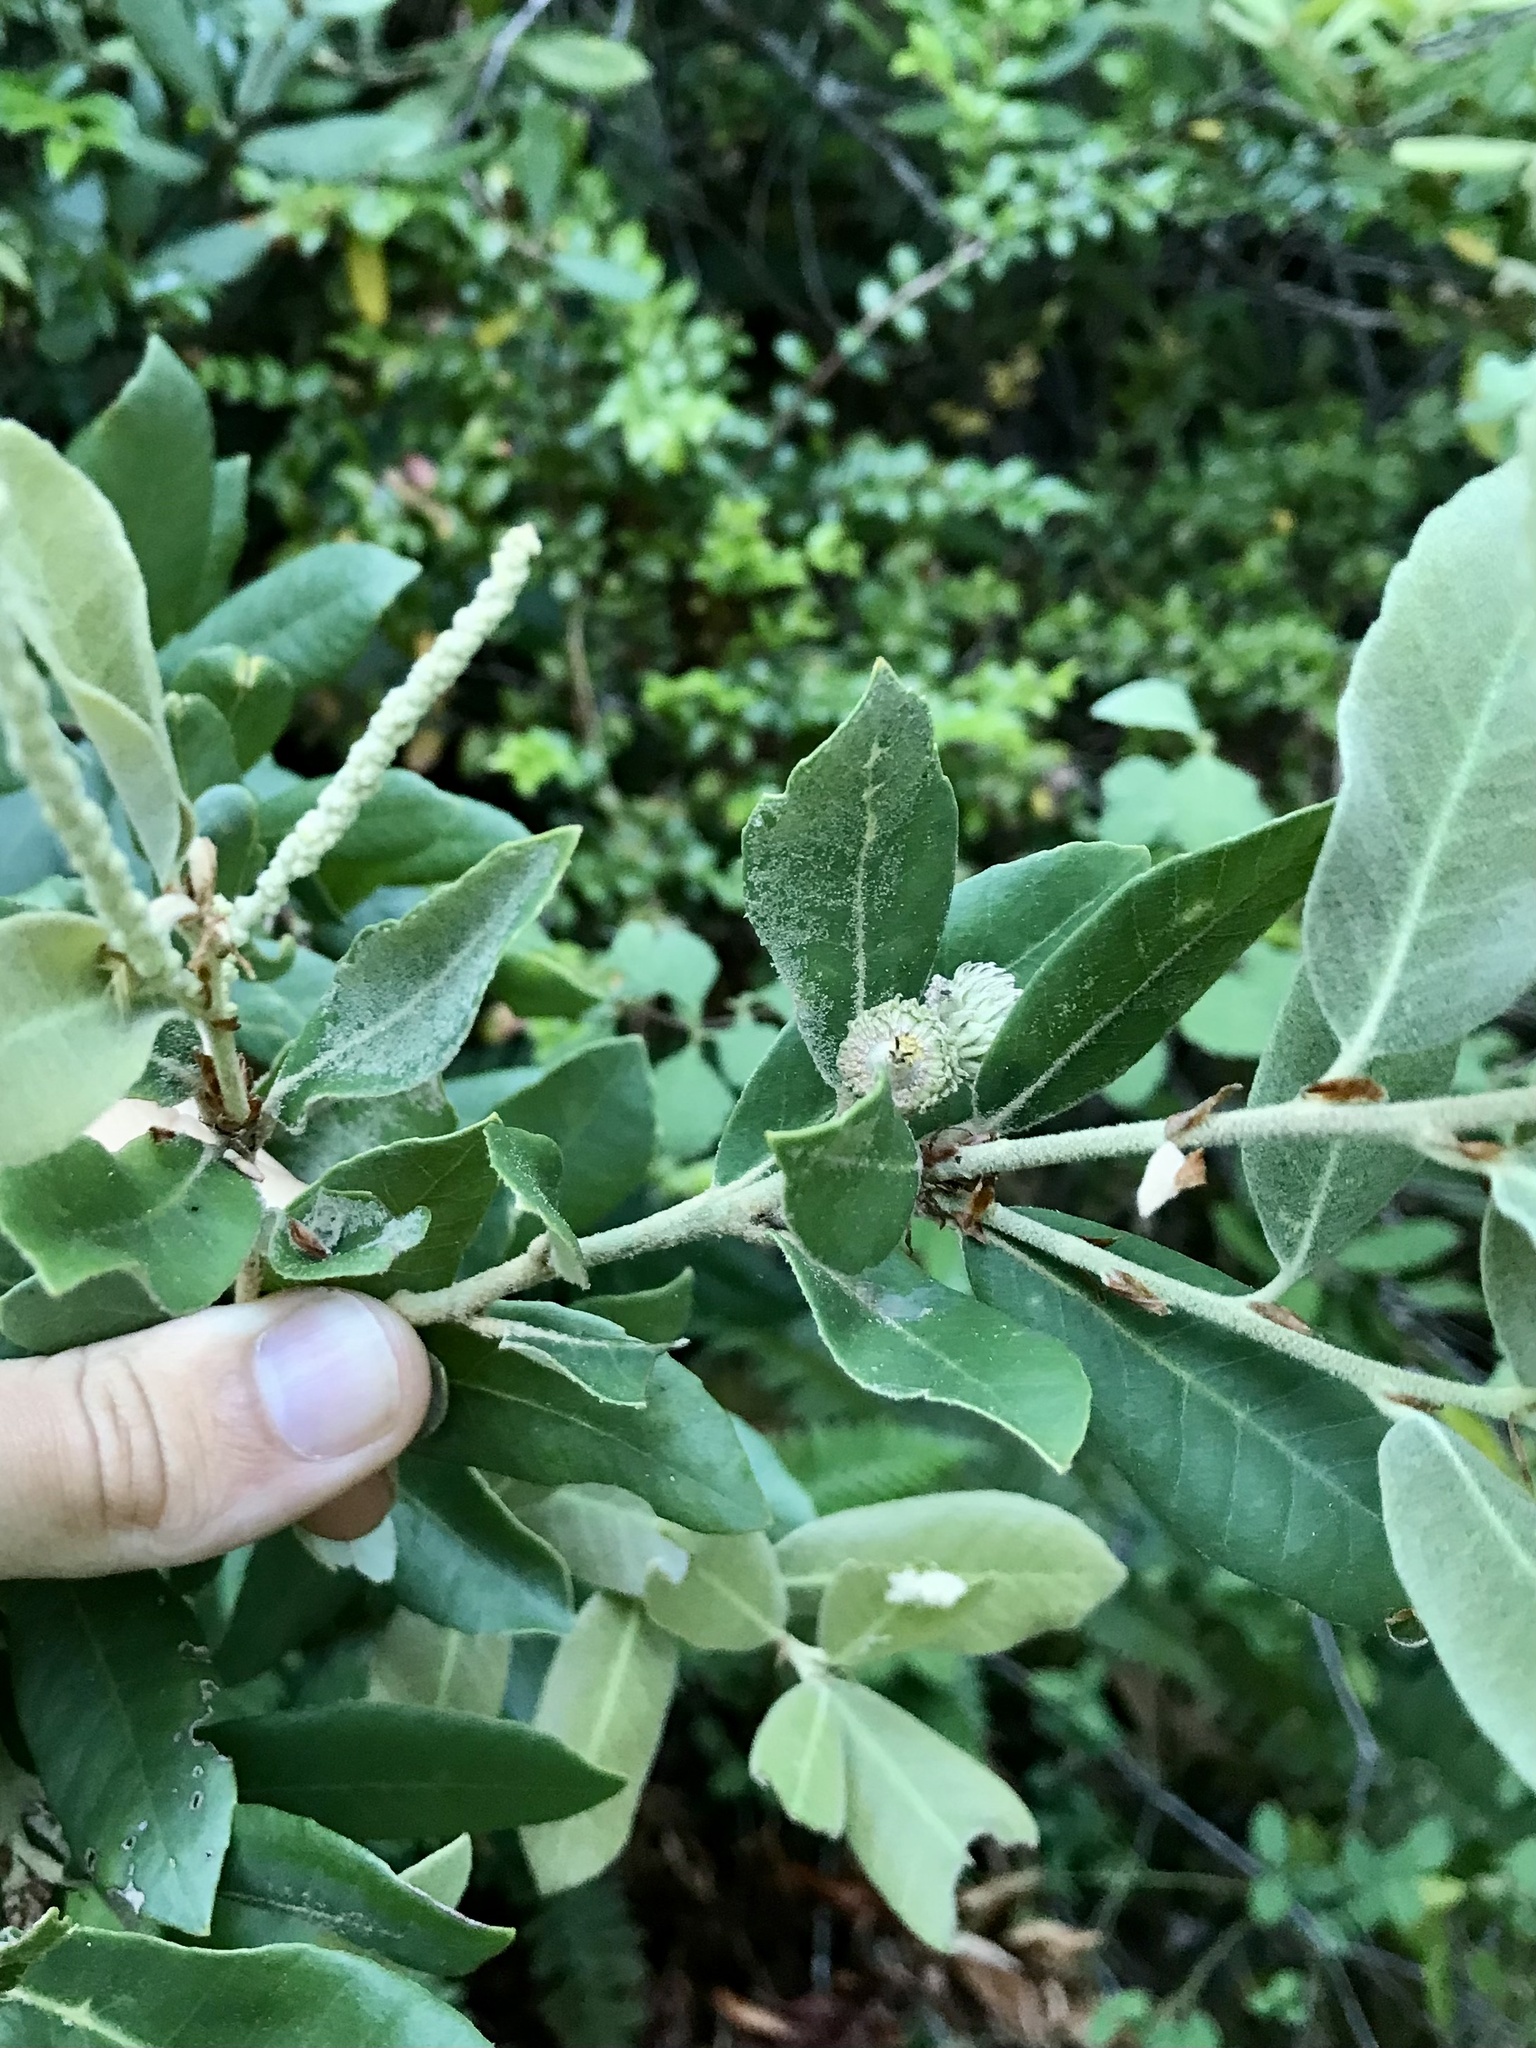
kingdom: Plantae
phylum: Tracheophyta
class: Magnoliopsida
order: Fagales
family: Fagaceae
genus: Notholithocarpus
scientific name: Notholithocarpus densiflorus
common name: Tan bark oak
